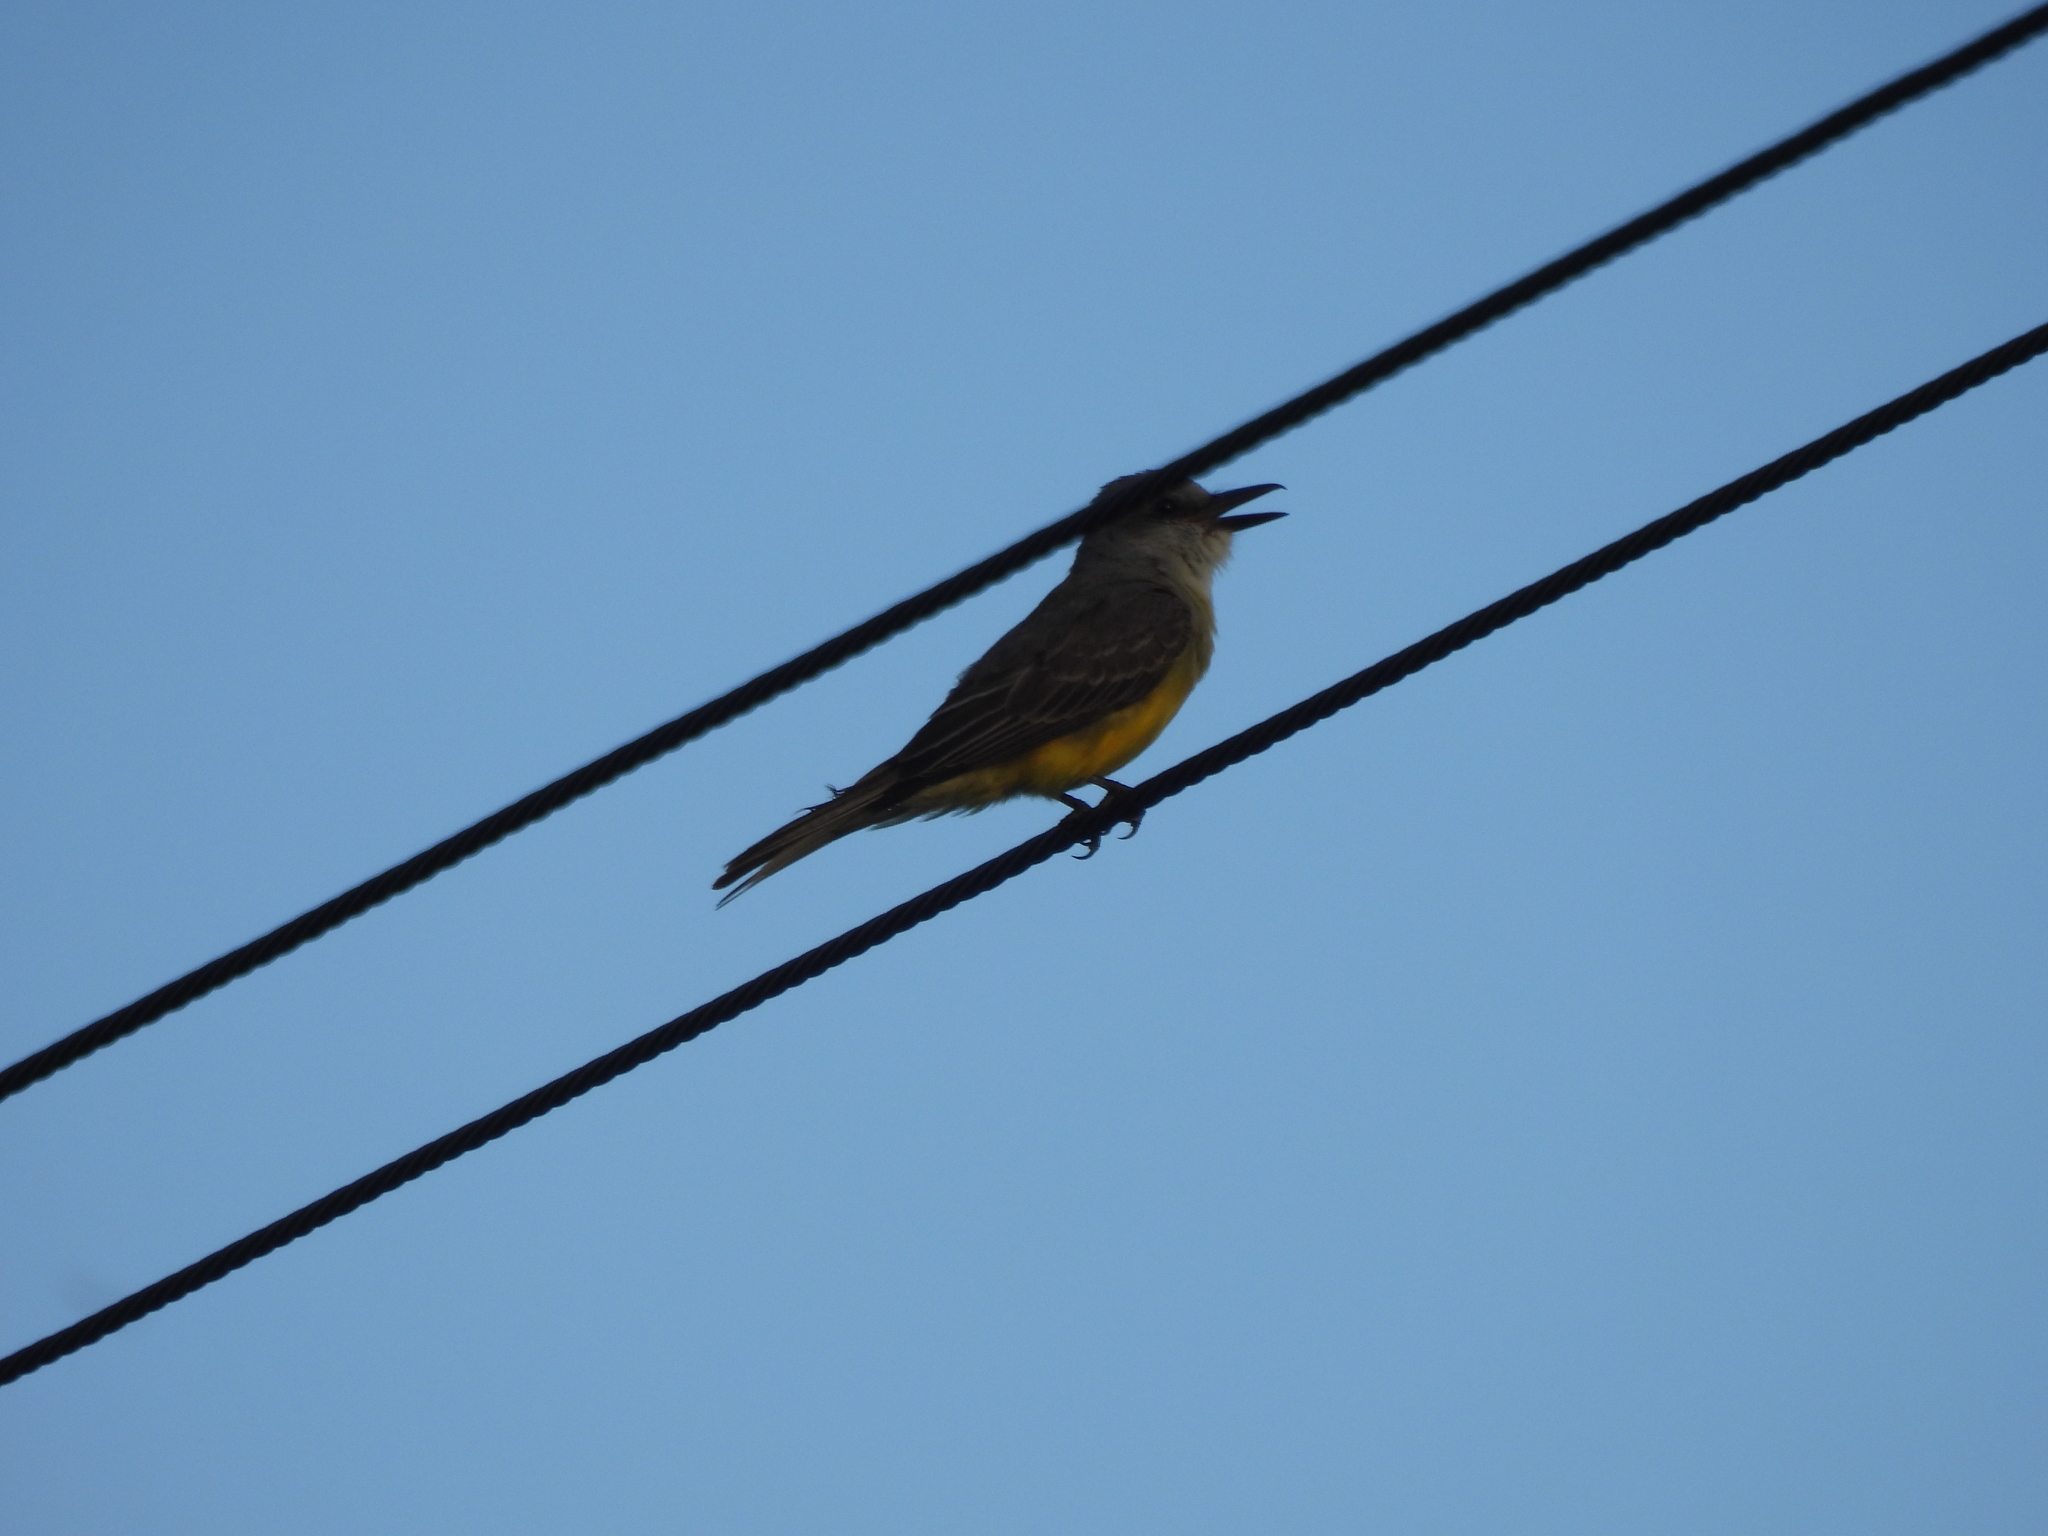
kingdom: Animalia
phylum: Chordata
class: Aves
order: Passeriformes
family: Tyrannidae
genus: Tyrannus
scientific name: Tyrannus melancholicus
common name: Tropical kingbird
